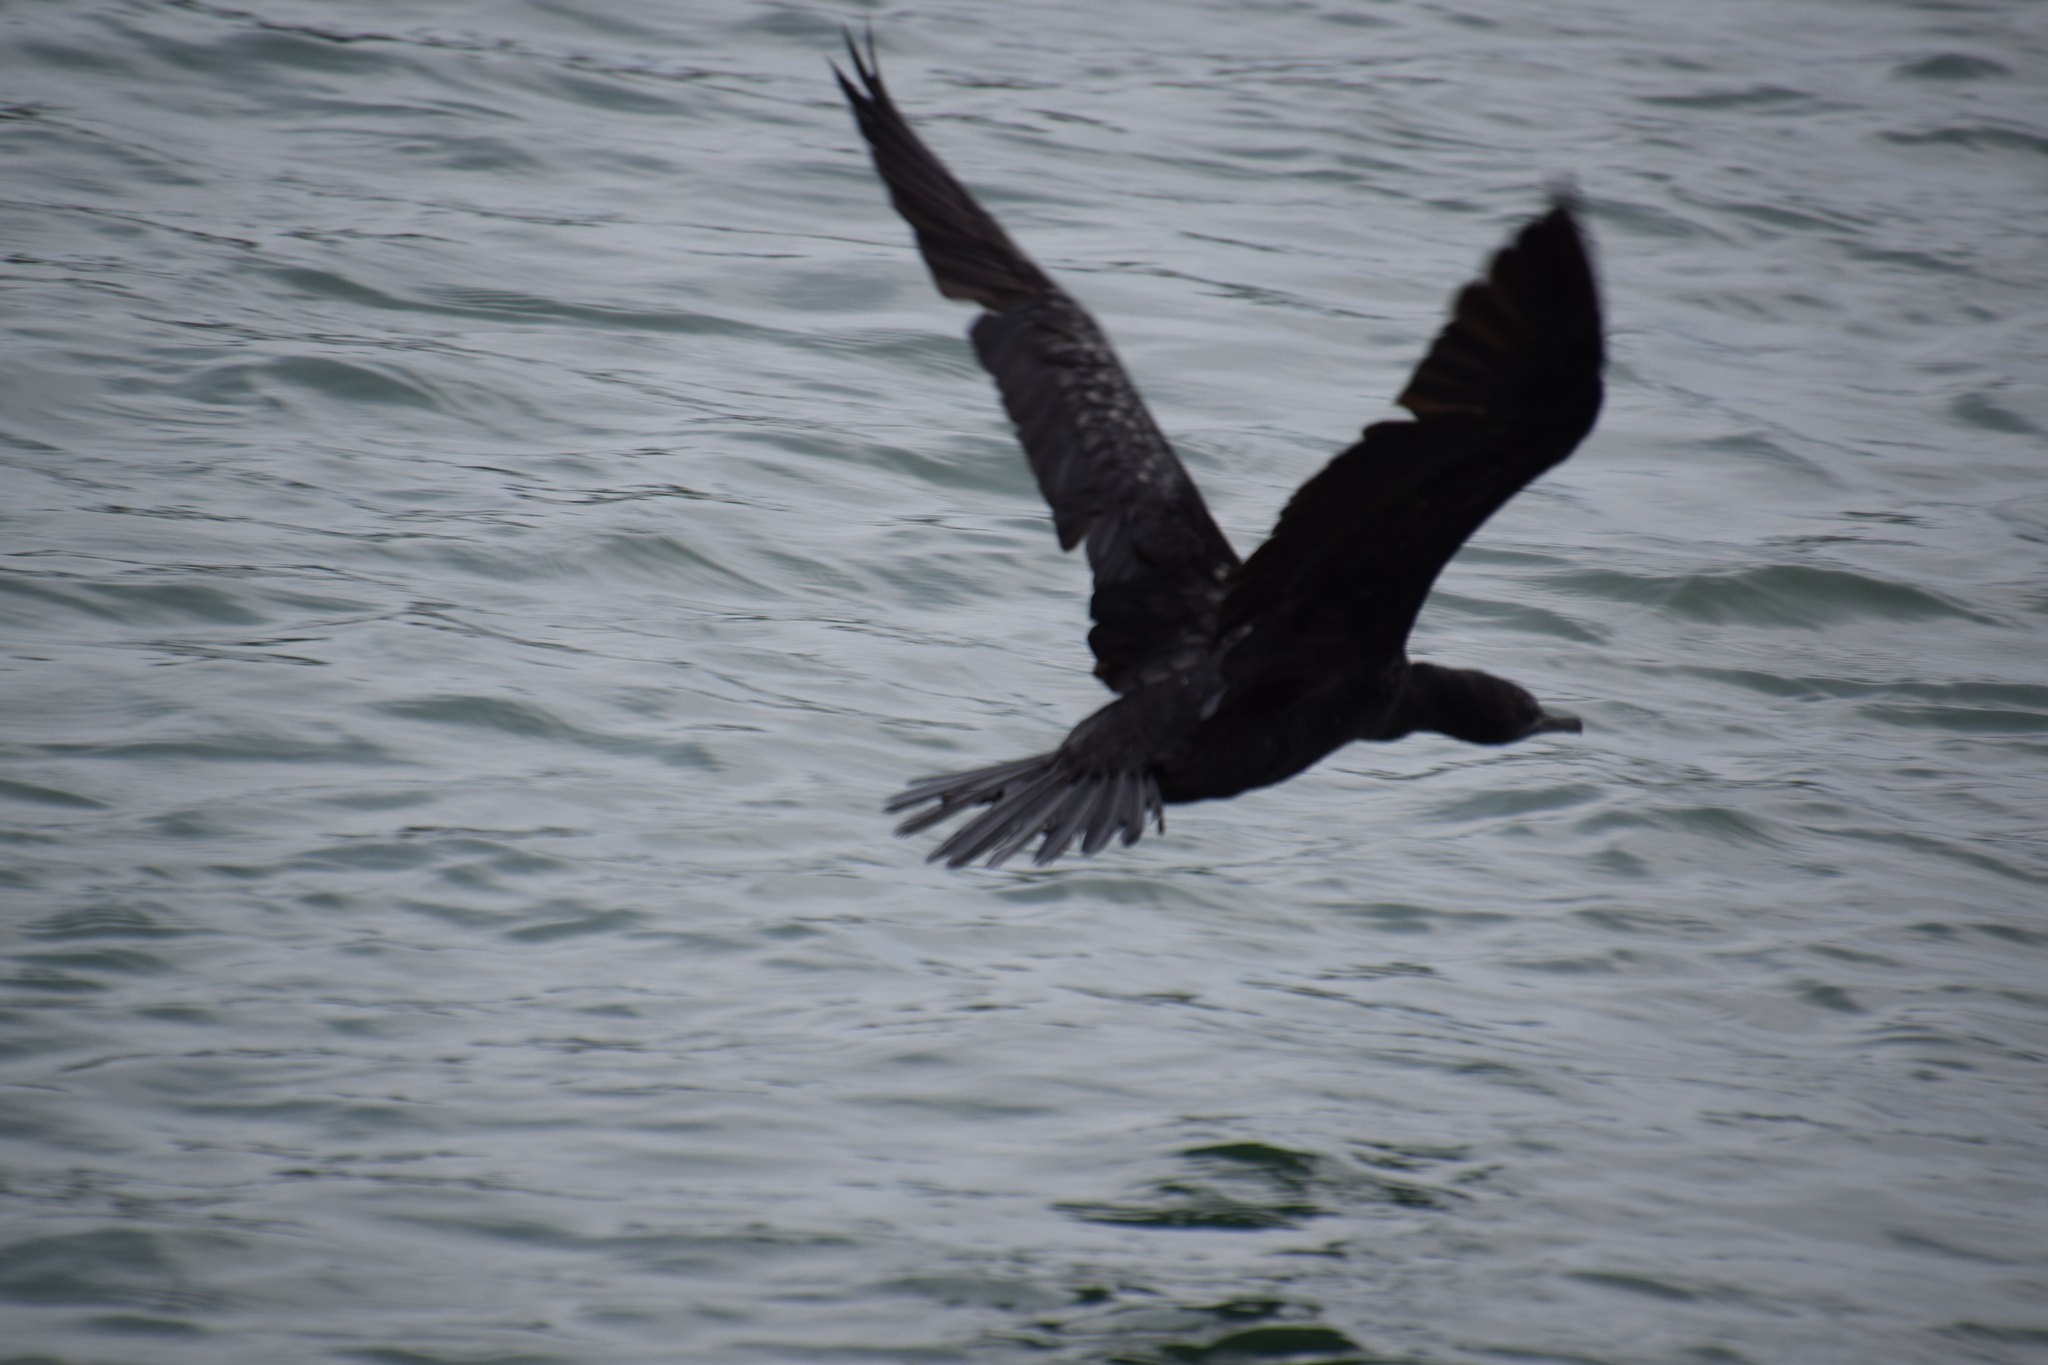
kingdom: Animalia
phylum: Chordata
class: Aves
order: Suliformes
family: Phalacrocoracidae
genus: Phalacrocorax
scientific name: Phalacrocorax sulcirostris
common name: Little black cormorant
